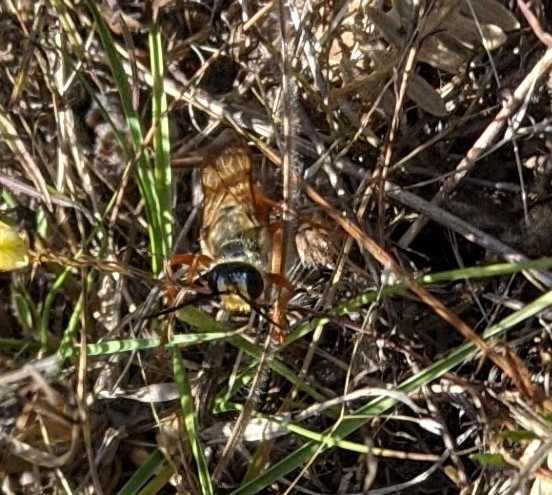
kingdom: Animalia
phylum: Arthropoda
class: Insecta
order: Hymenoptera
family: Sphecidae
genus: Sphex
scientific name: Sphex ichneumoneus
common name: Great golden digger wasp
